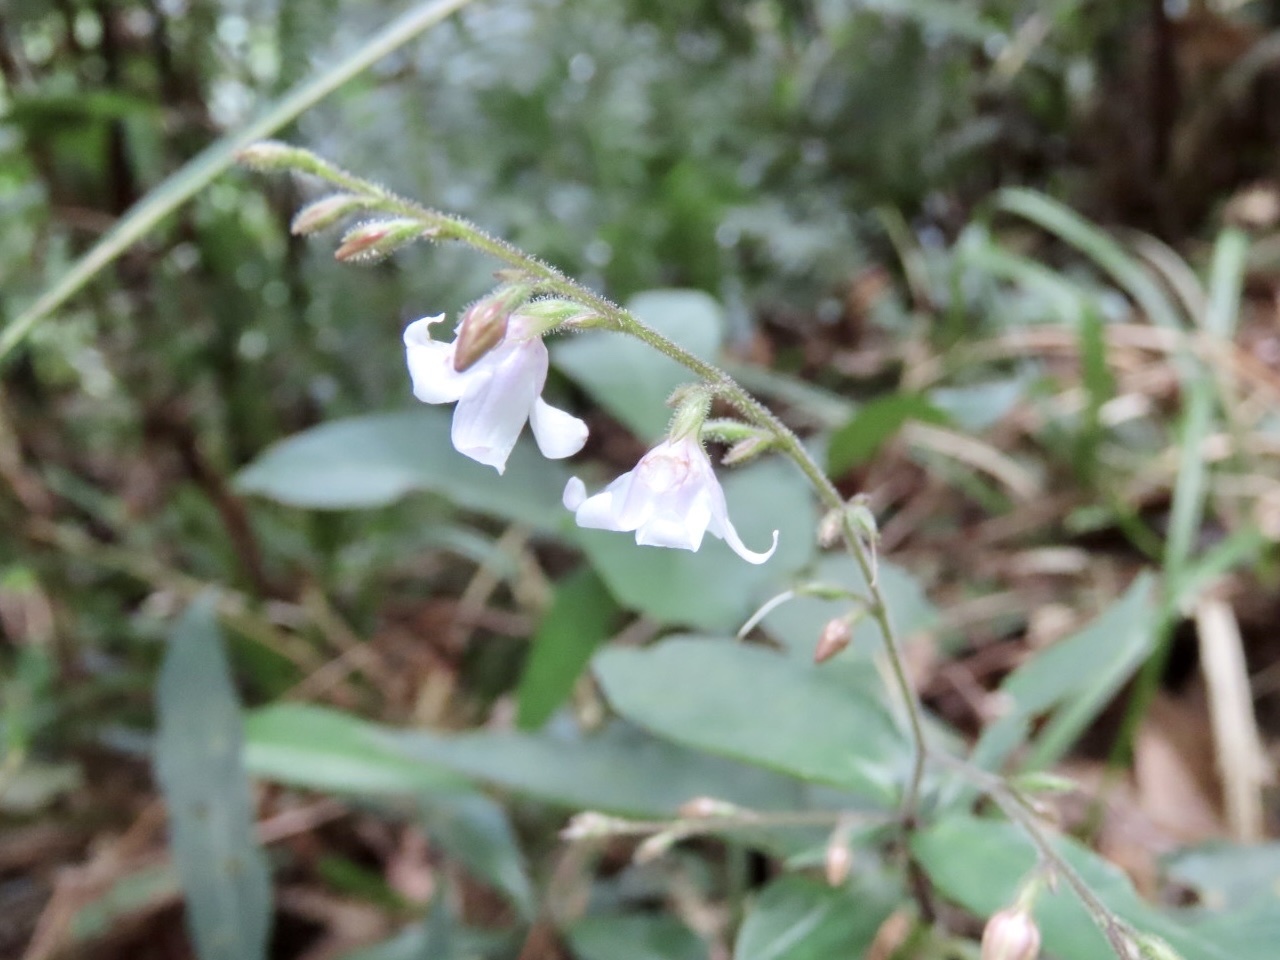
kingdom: Plantae
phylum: Tracheophyta
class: Magnoliopsida
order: Lamiales
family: Acanthaceae
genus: Codonacanthus
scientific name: Codonacanthus pauciflorus
